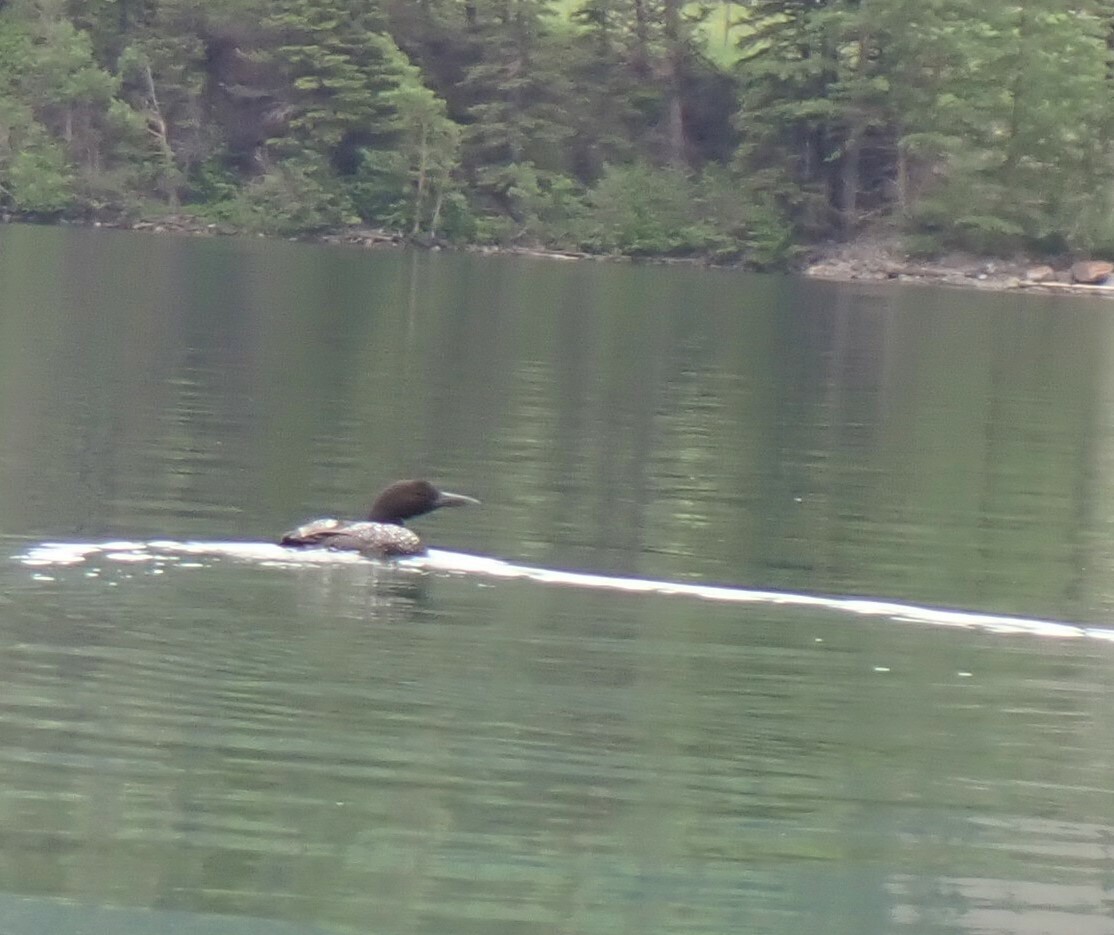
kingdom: Animalia
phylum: Chordata
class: Aves
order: Gaviiformes
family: Gaviidae
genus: Gavia
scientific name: Gavia immer
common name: Common loon
